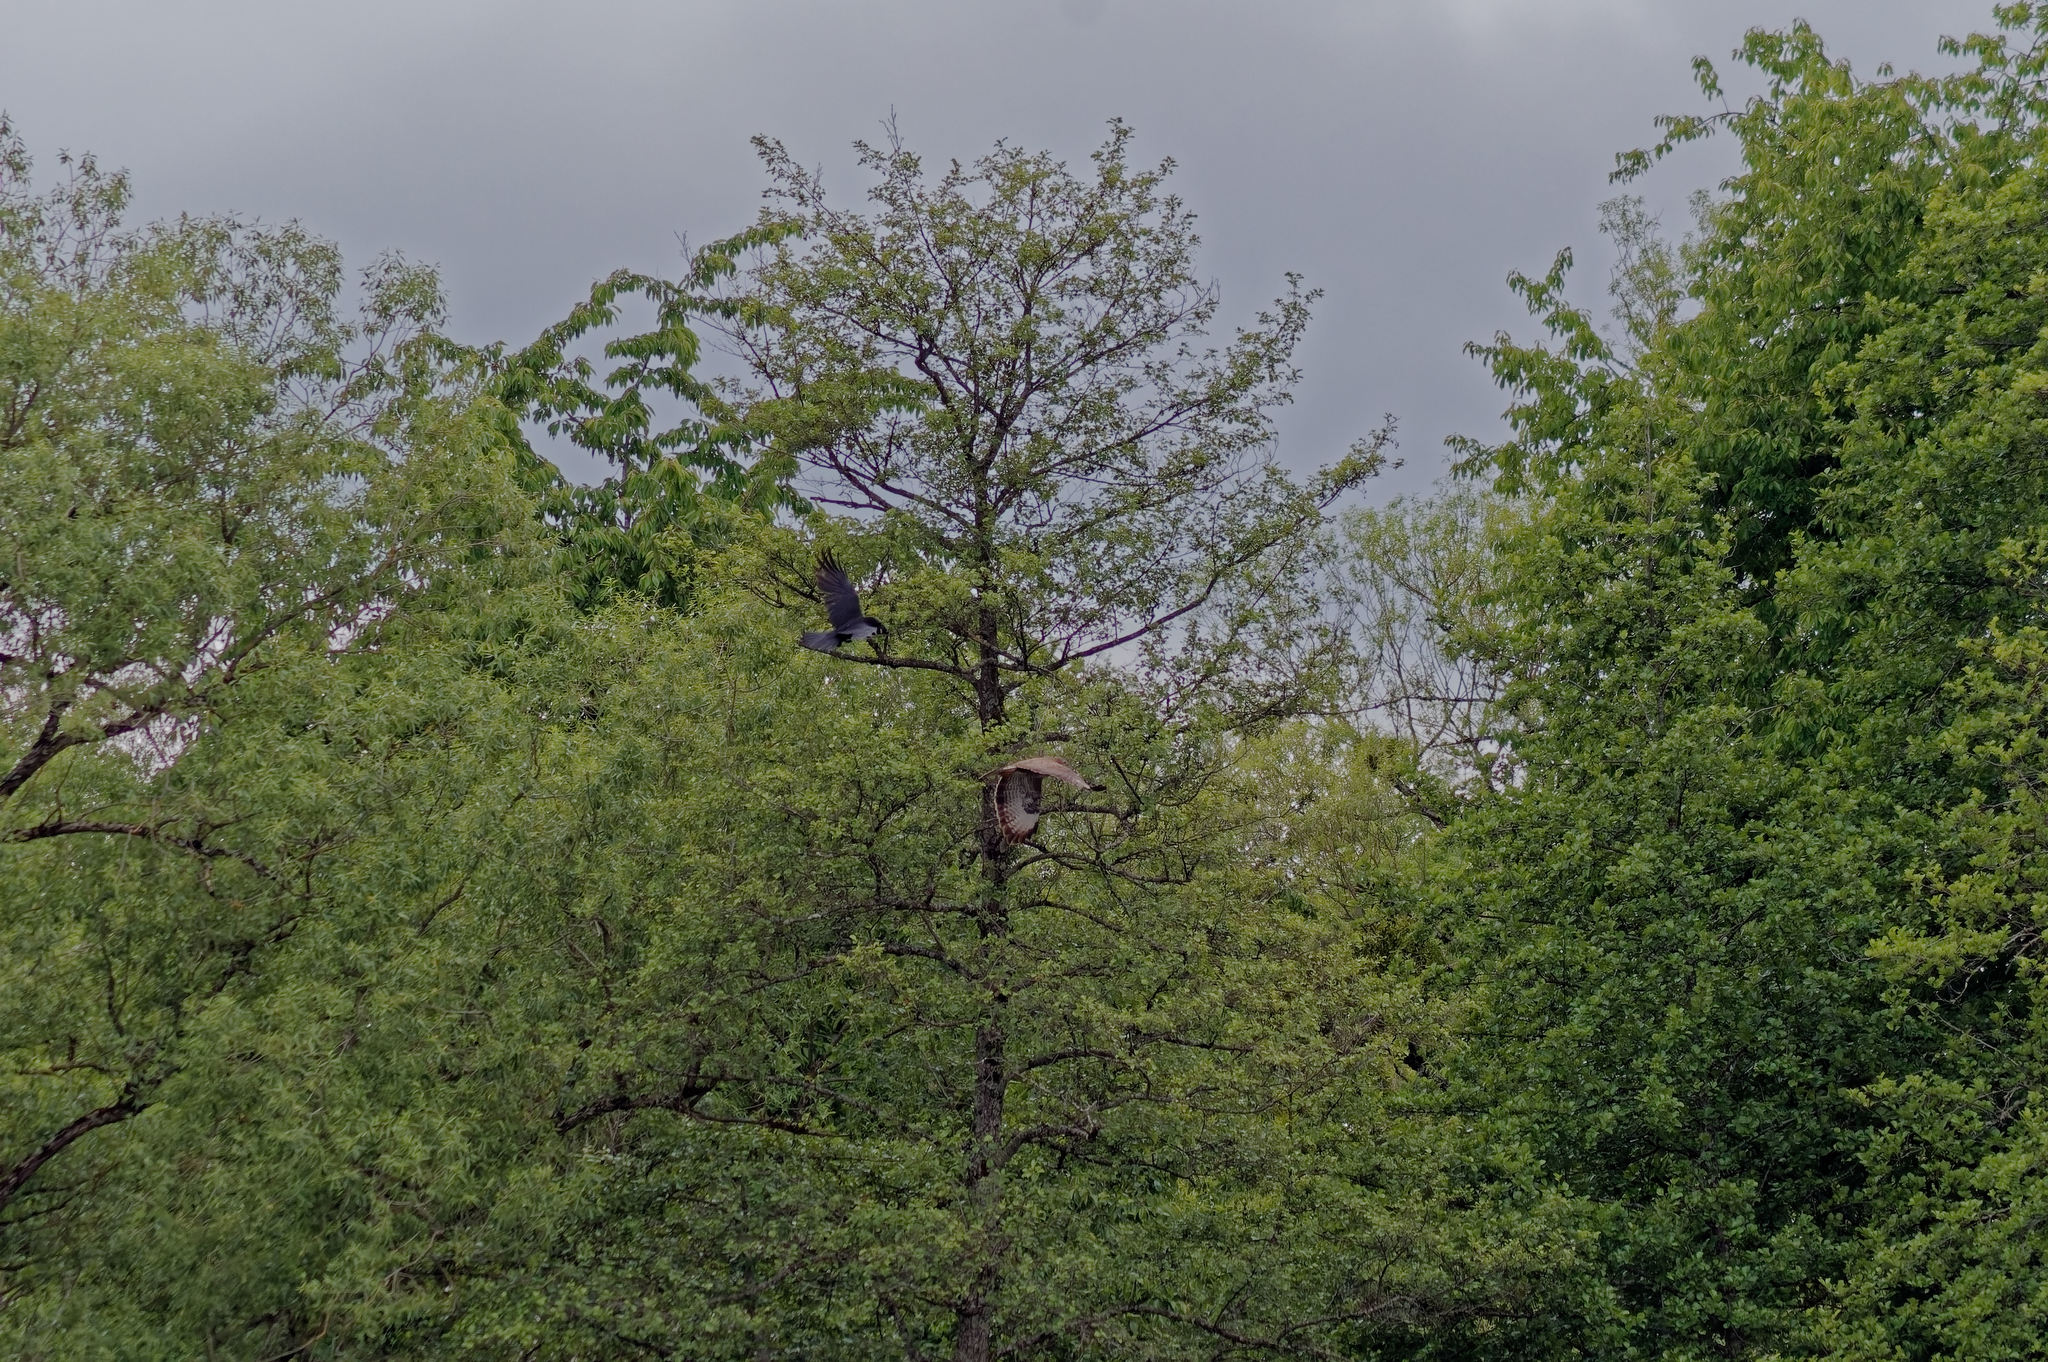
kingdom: Animalia
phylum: Chordata
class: Aves
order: Accipitriformes
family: Accipitridae
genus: Buteo
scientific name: Buteo buteo
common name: Common buzzard
